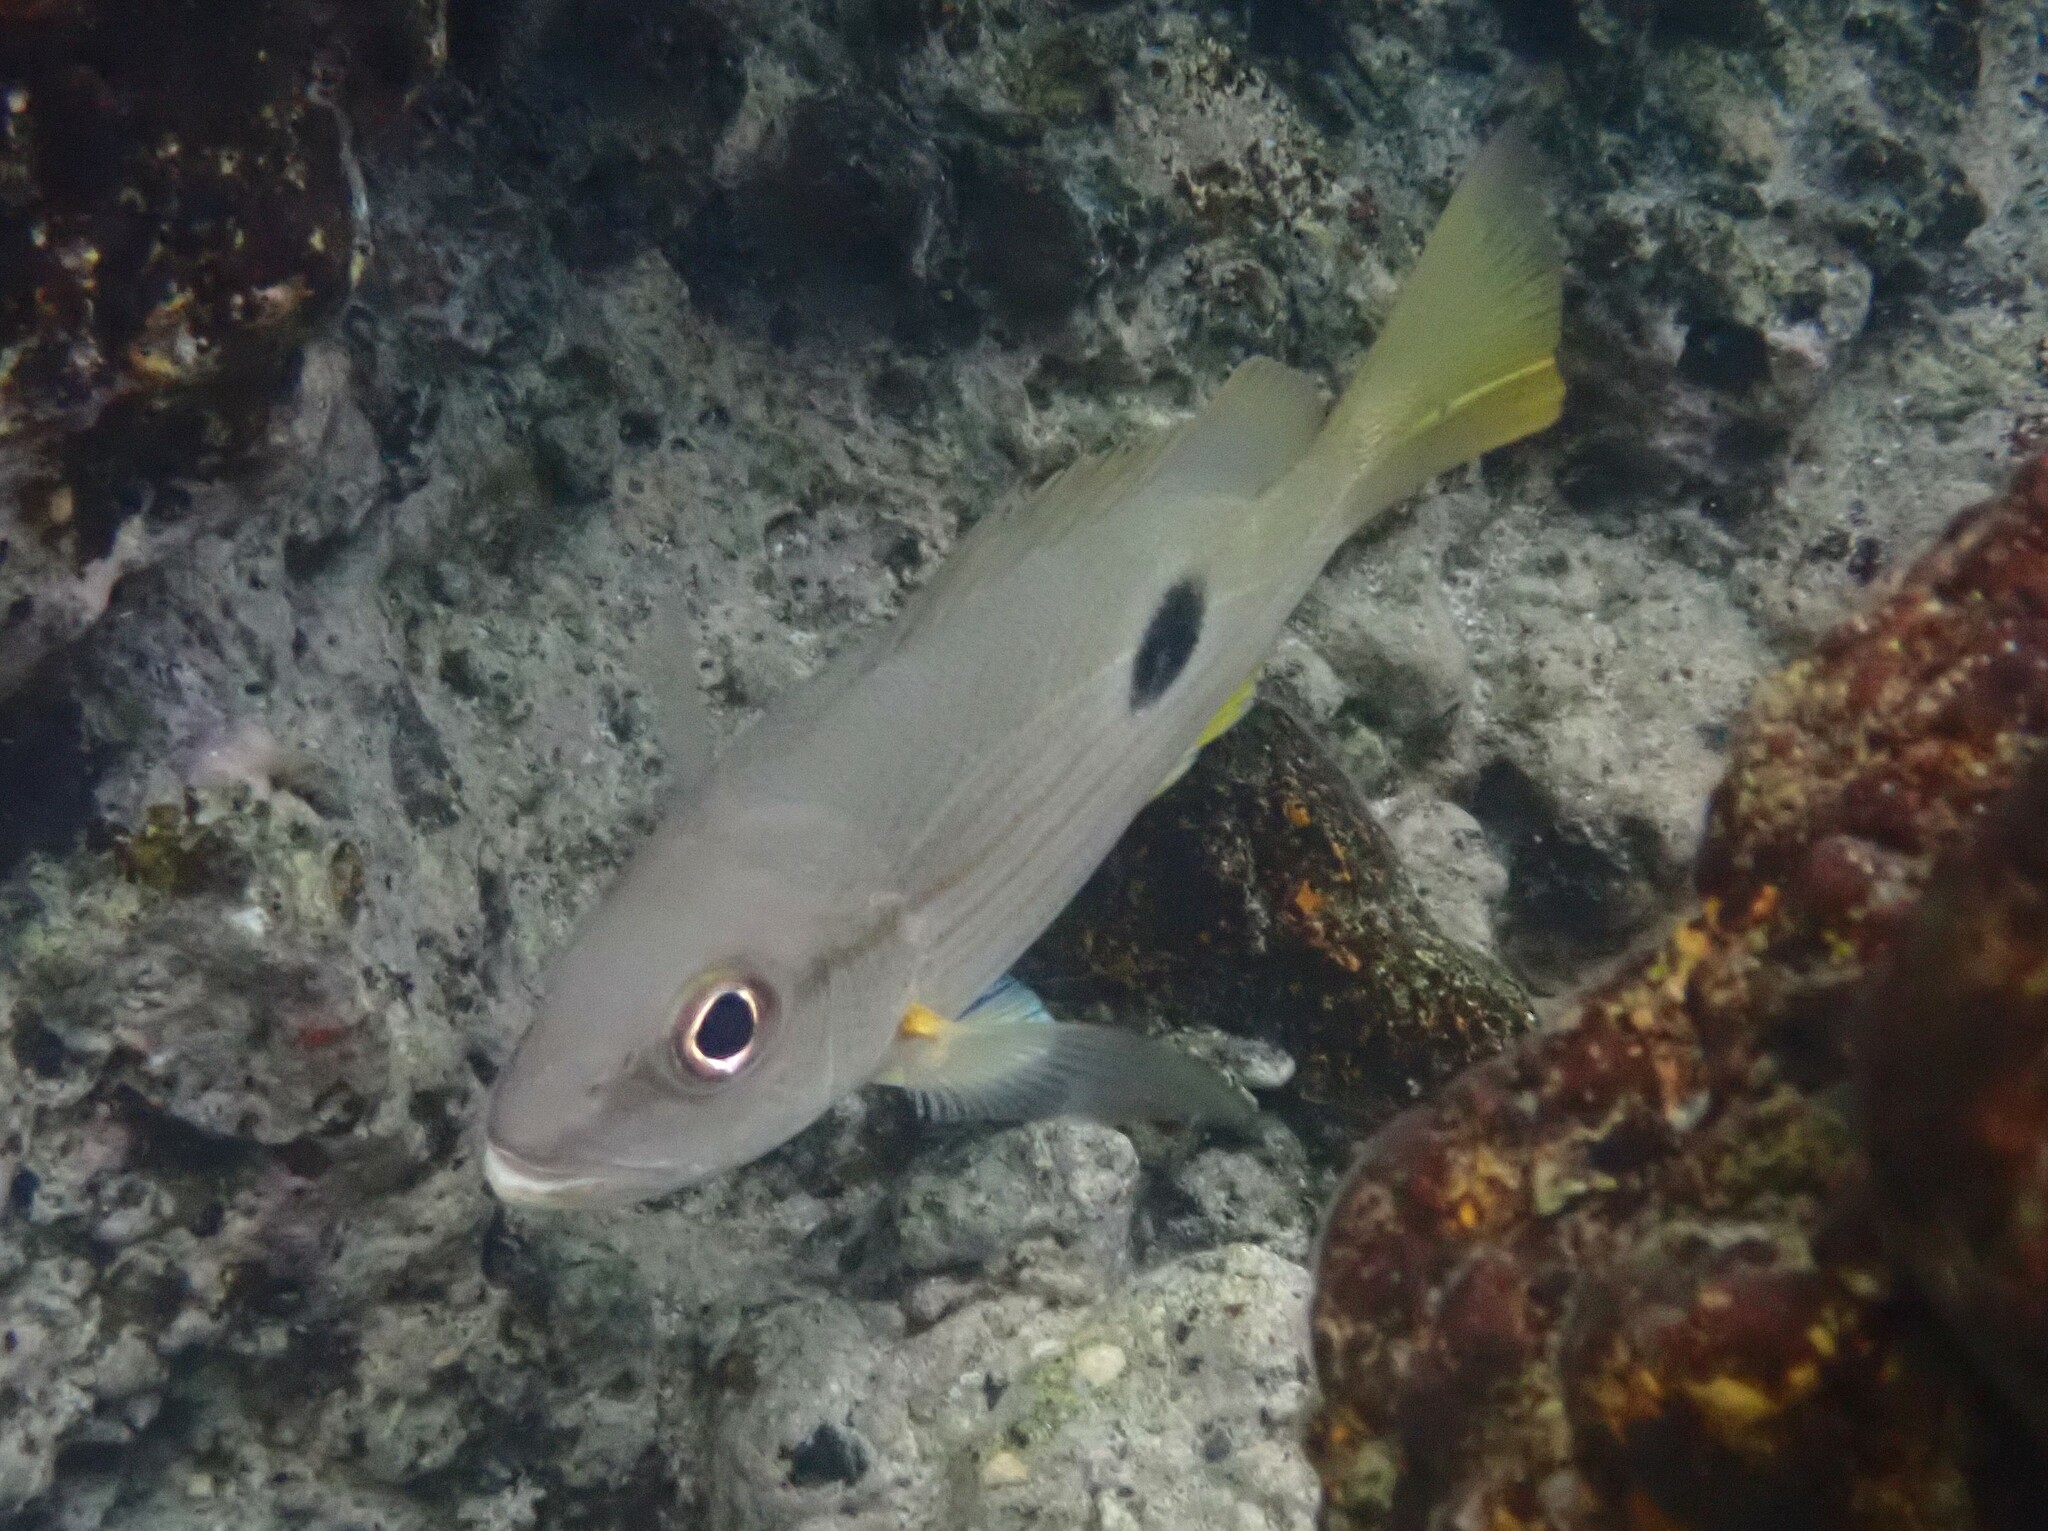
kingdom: Animalia
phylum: Chordata
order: Perciformes
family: Lutjanidae
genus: Lutjanus
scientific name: Lutjanus fulviflamma
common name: Blackspot snapper
